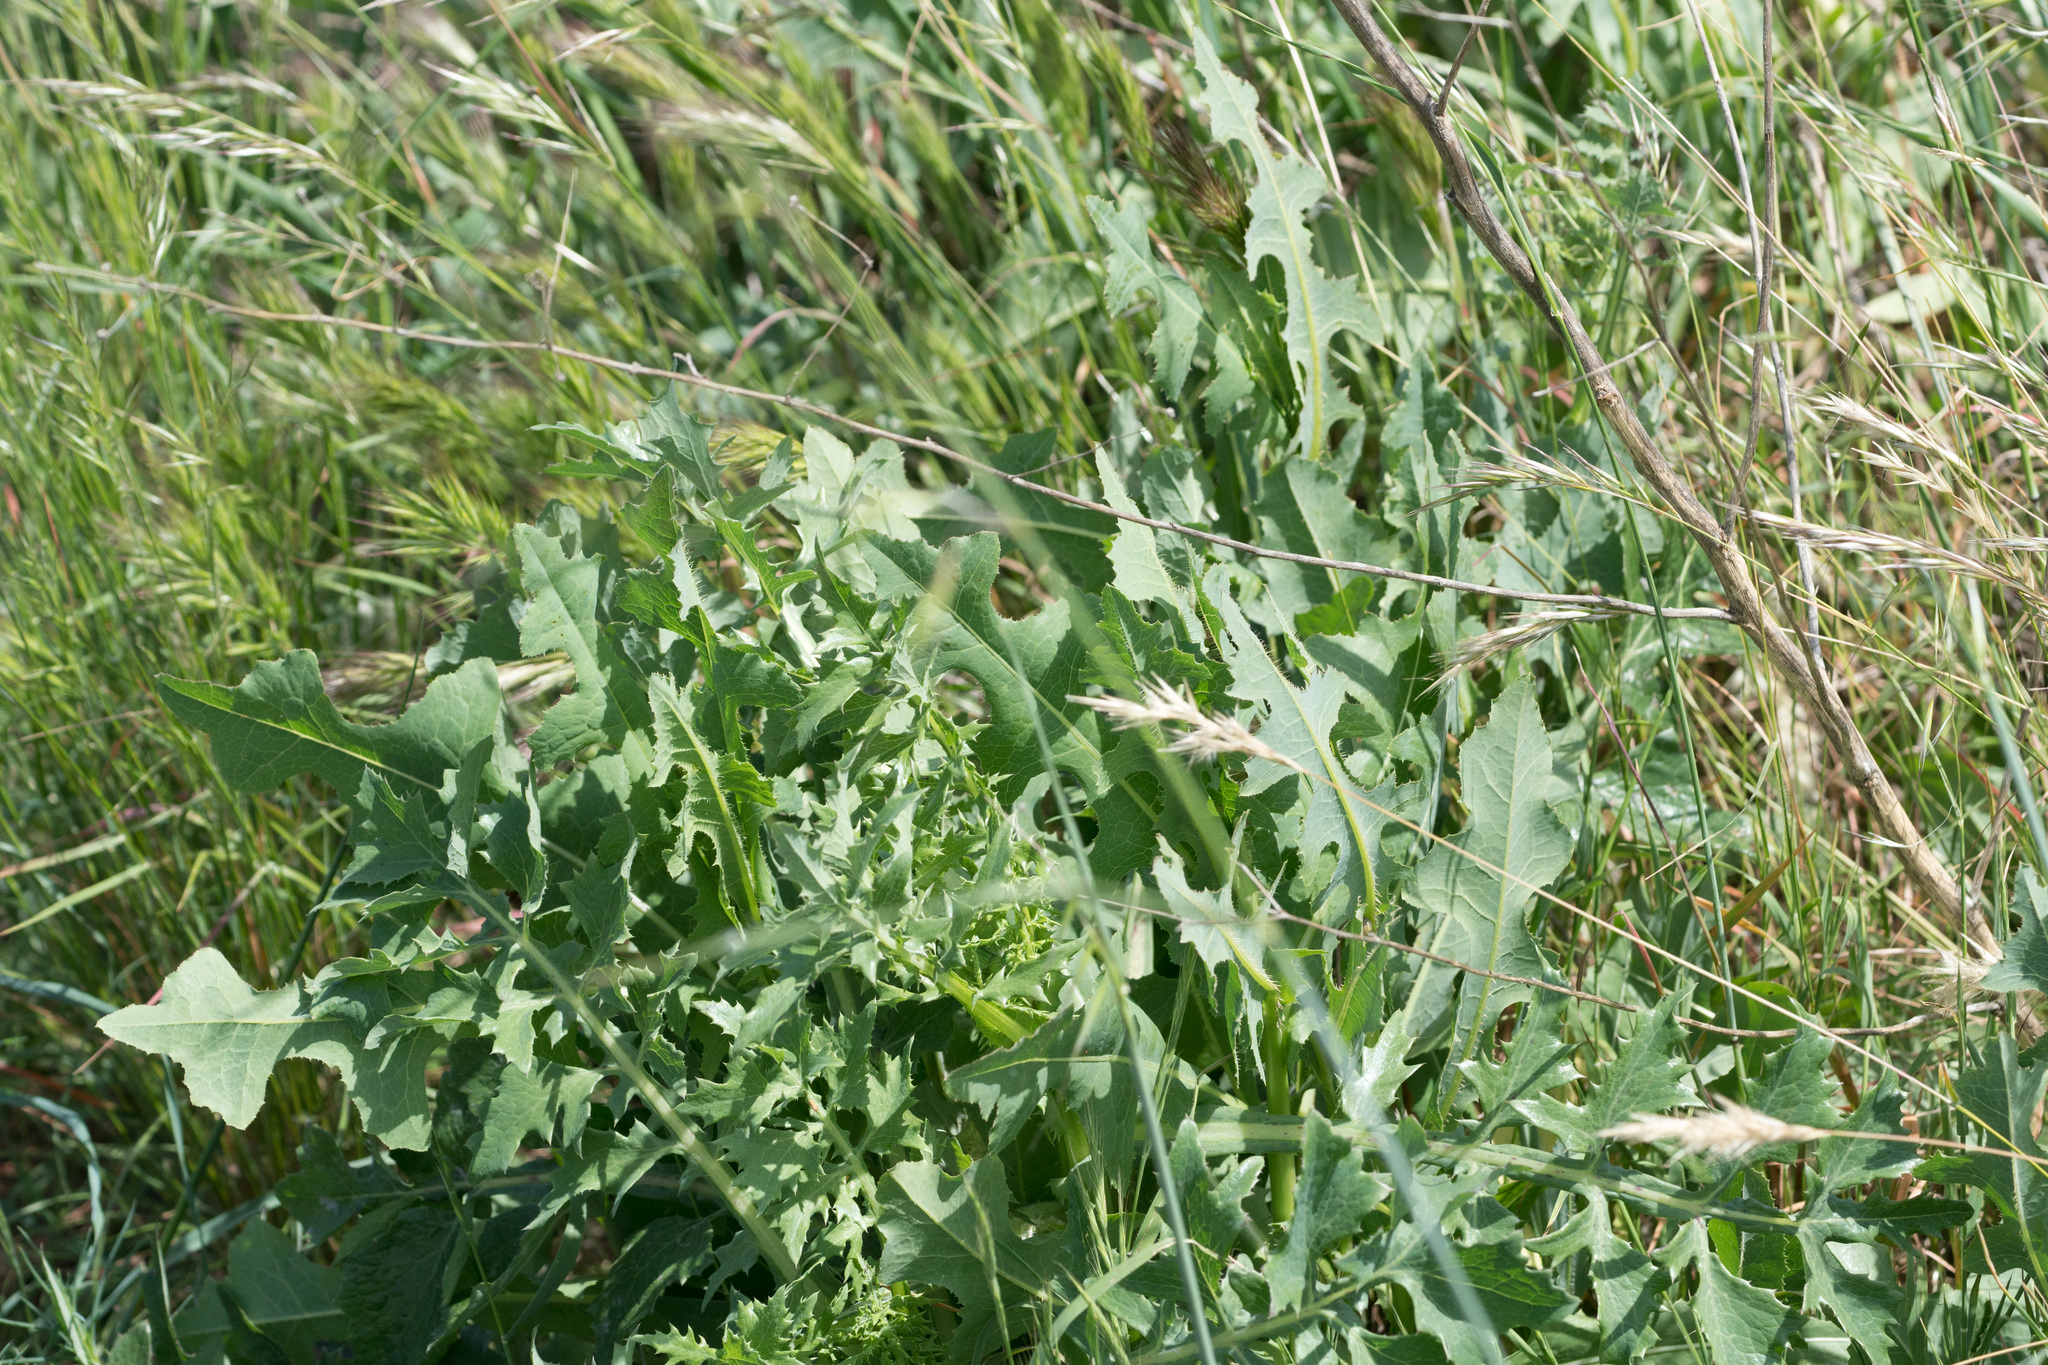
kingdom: Plantae
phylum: Tracheophyta
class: Magnoliopsida
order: Asterales
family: Asteraceae
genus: Lactuca
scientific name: Lactuca serriola
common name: Prickly lettuce
